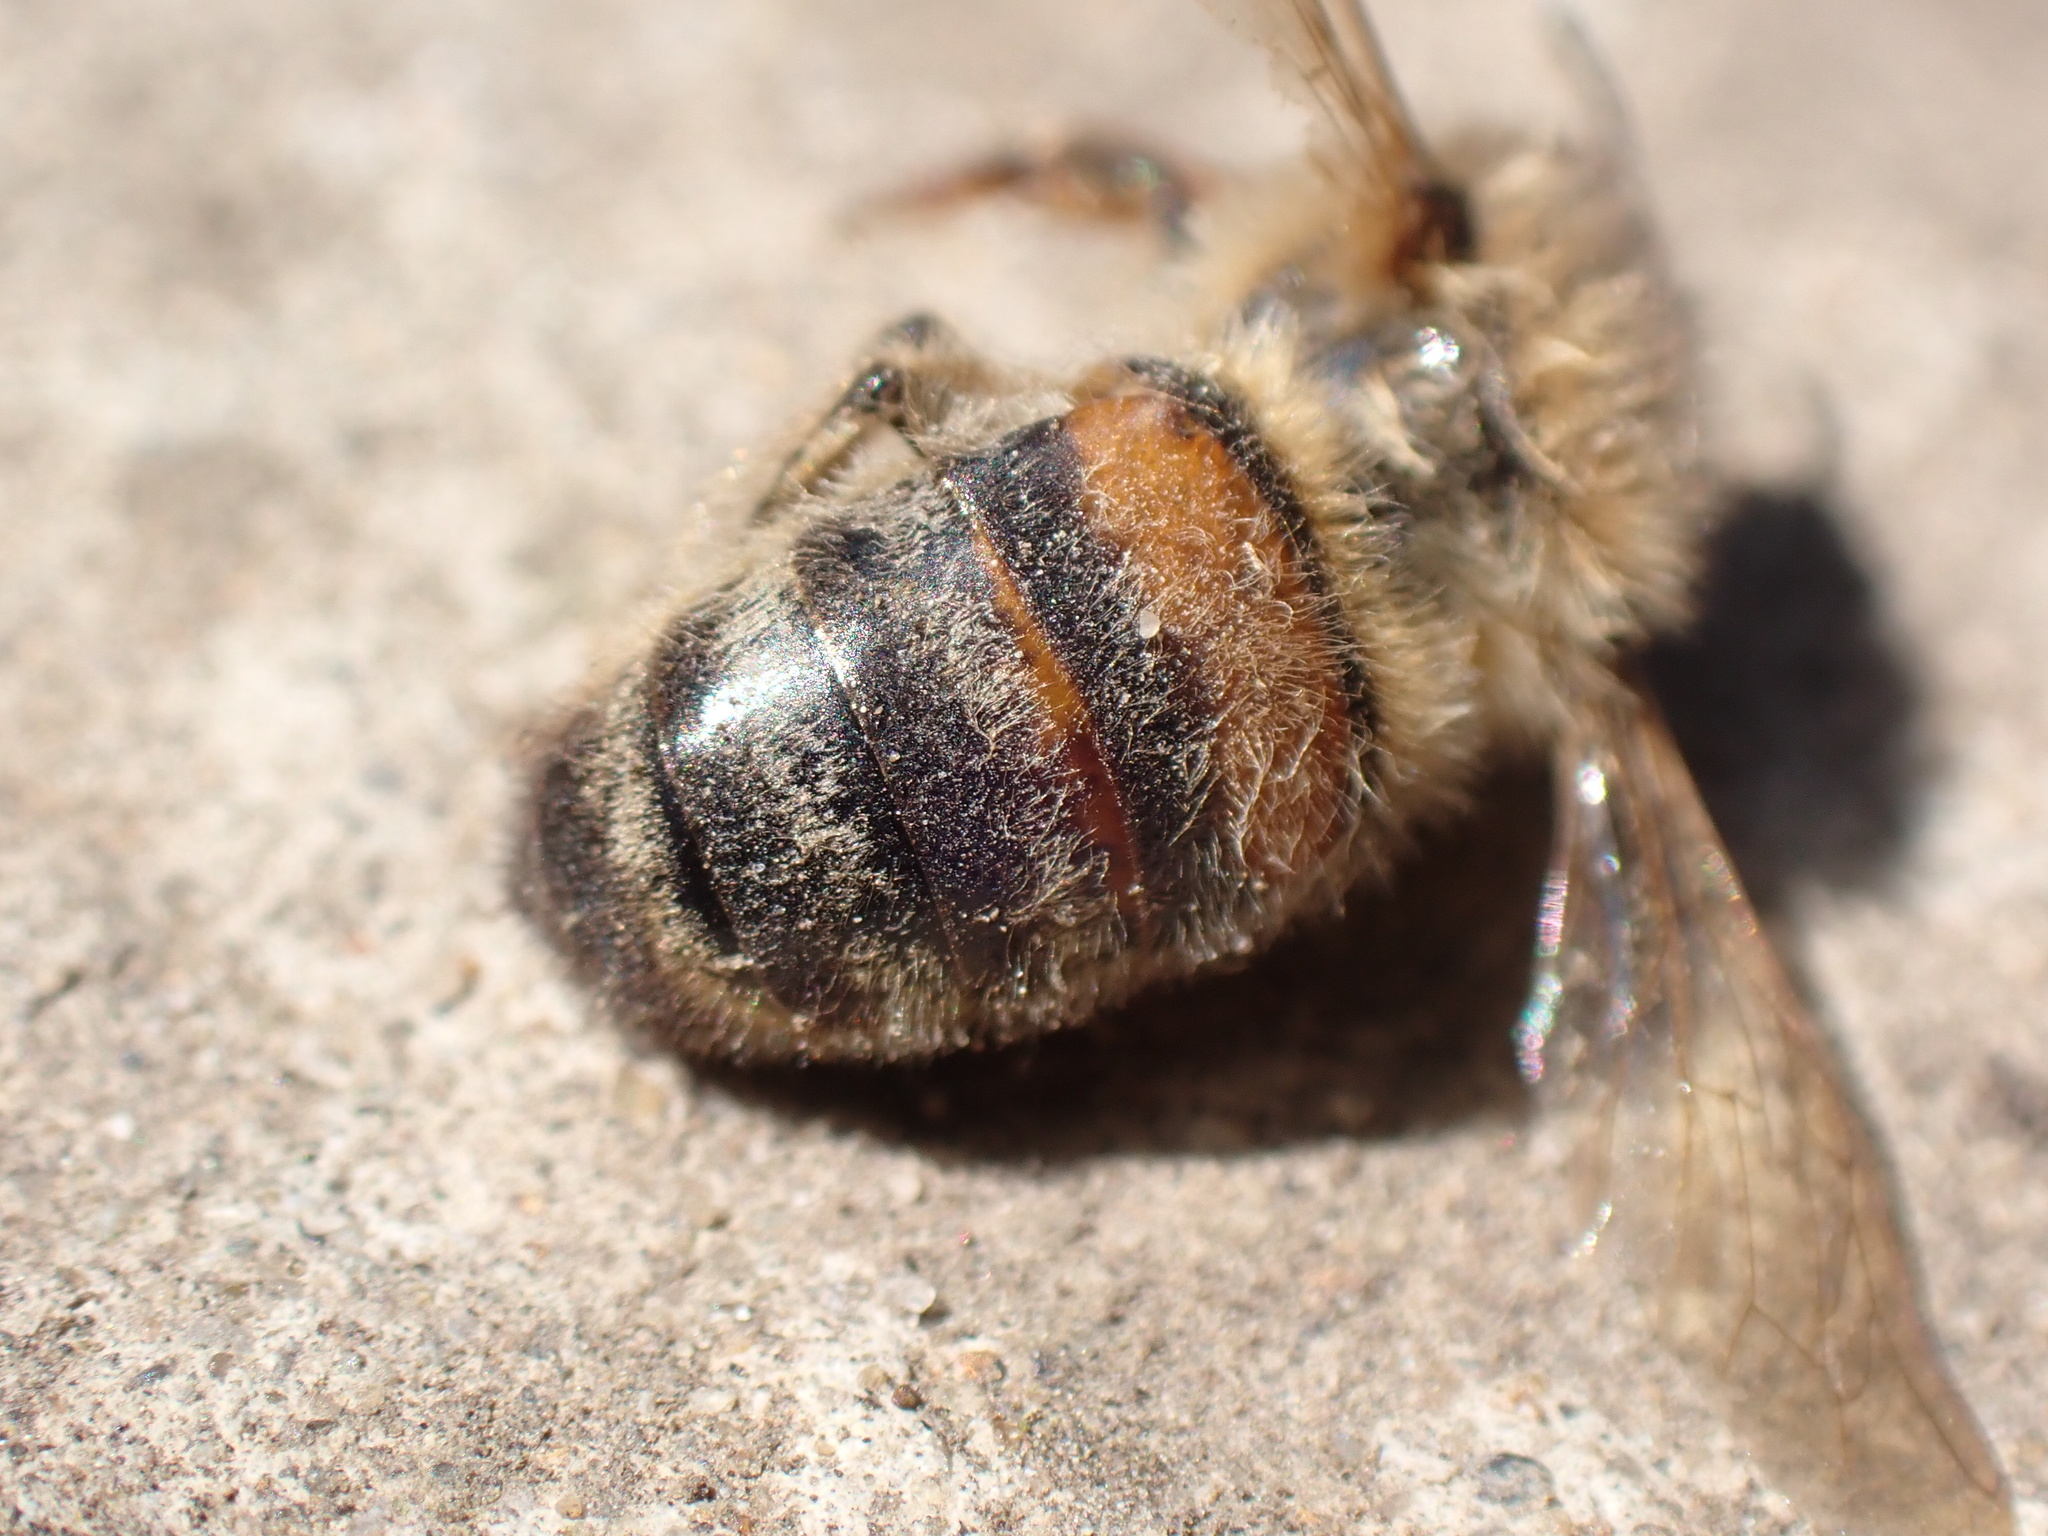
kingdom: Animalia
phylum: Arthropoda
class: Insecta
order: Hymenoptera
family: Apidae
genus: Apis
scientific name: Apis mellifera
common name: Honey bee
